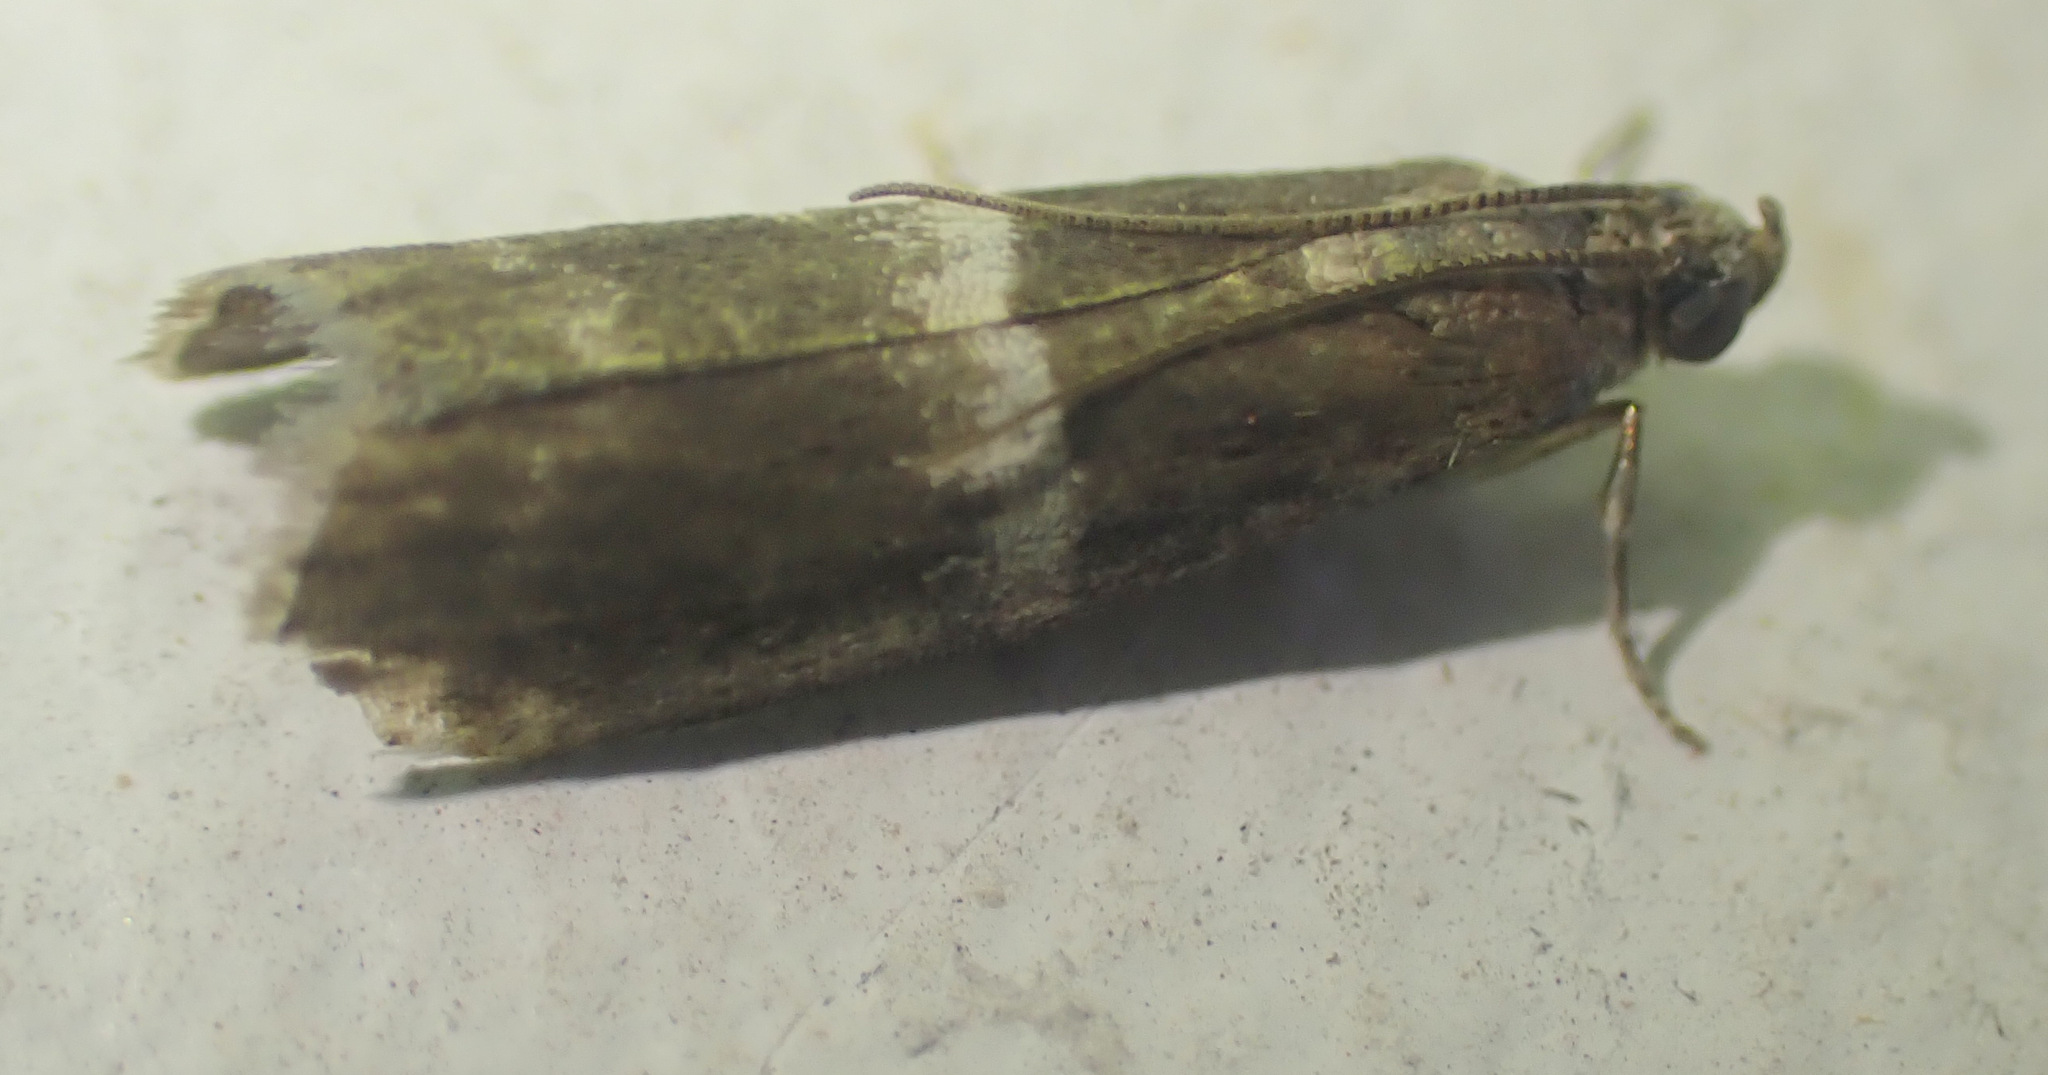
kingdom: Animalia
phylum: Arthropoda
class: Insecta
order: Lepidoptera
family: Pyralidae
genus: Elegia
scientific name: Elegia similella
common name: White-barred knot-horn
